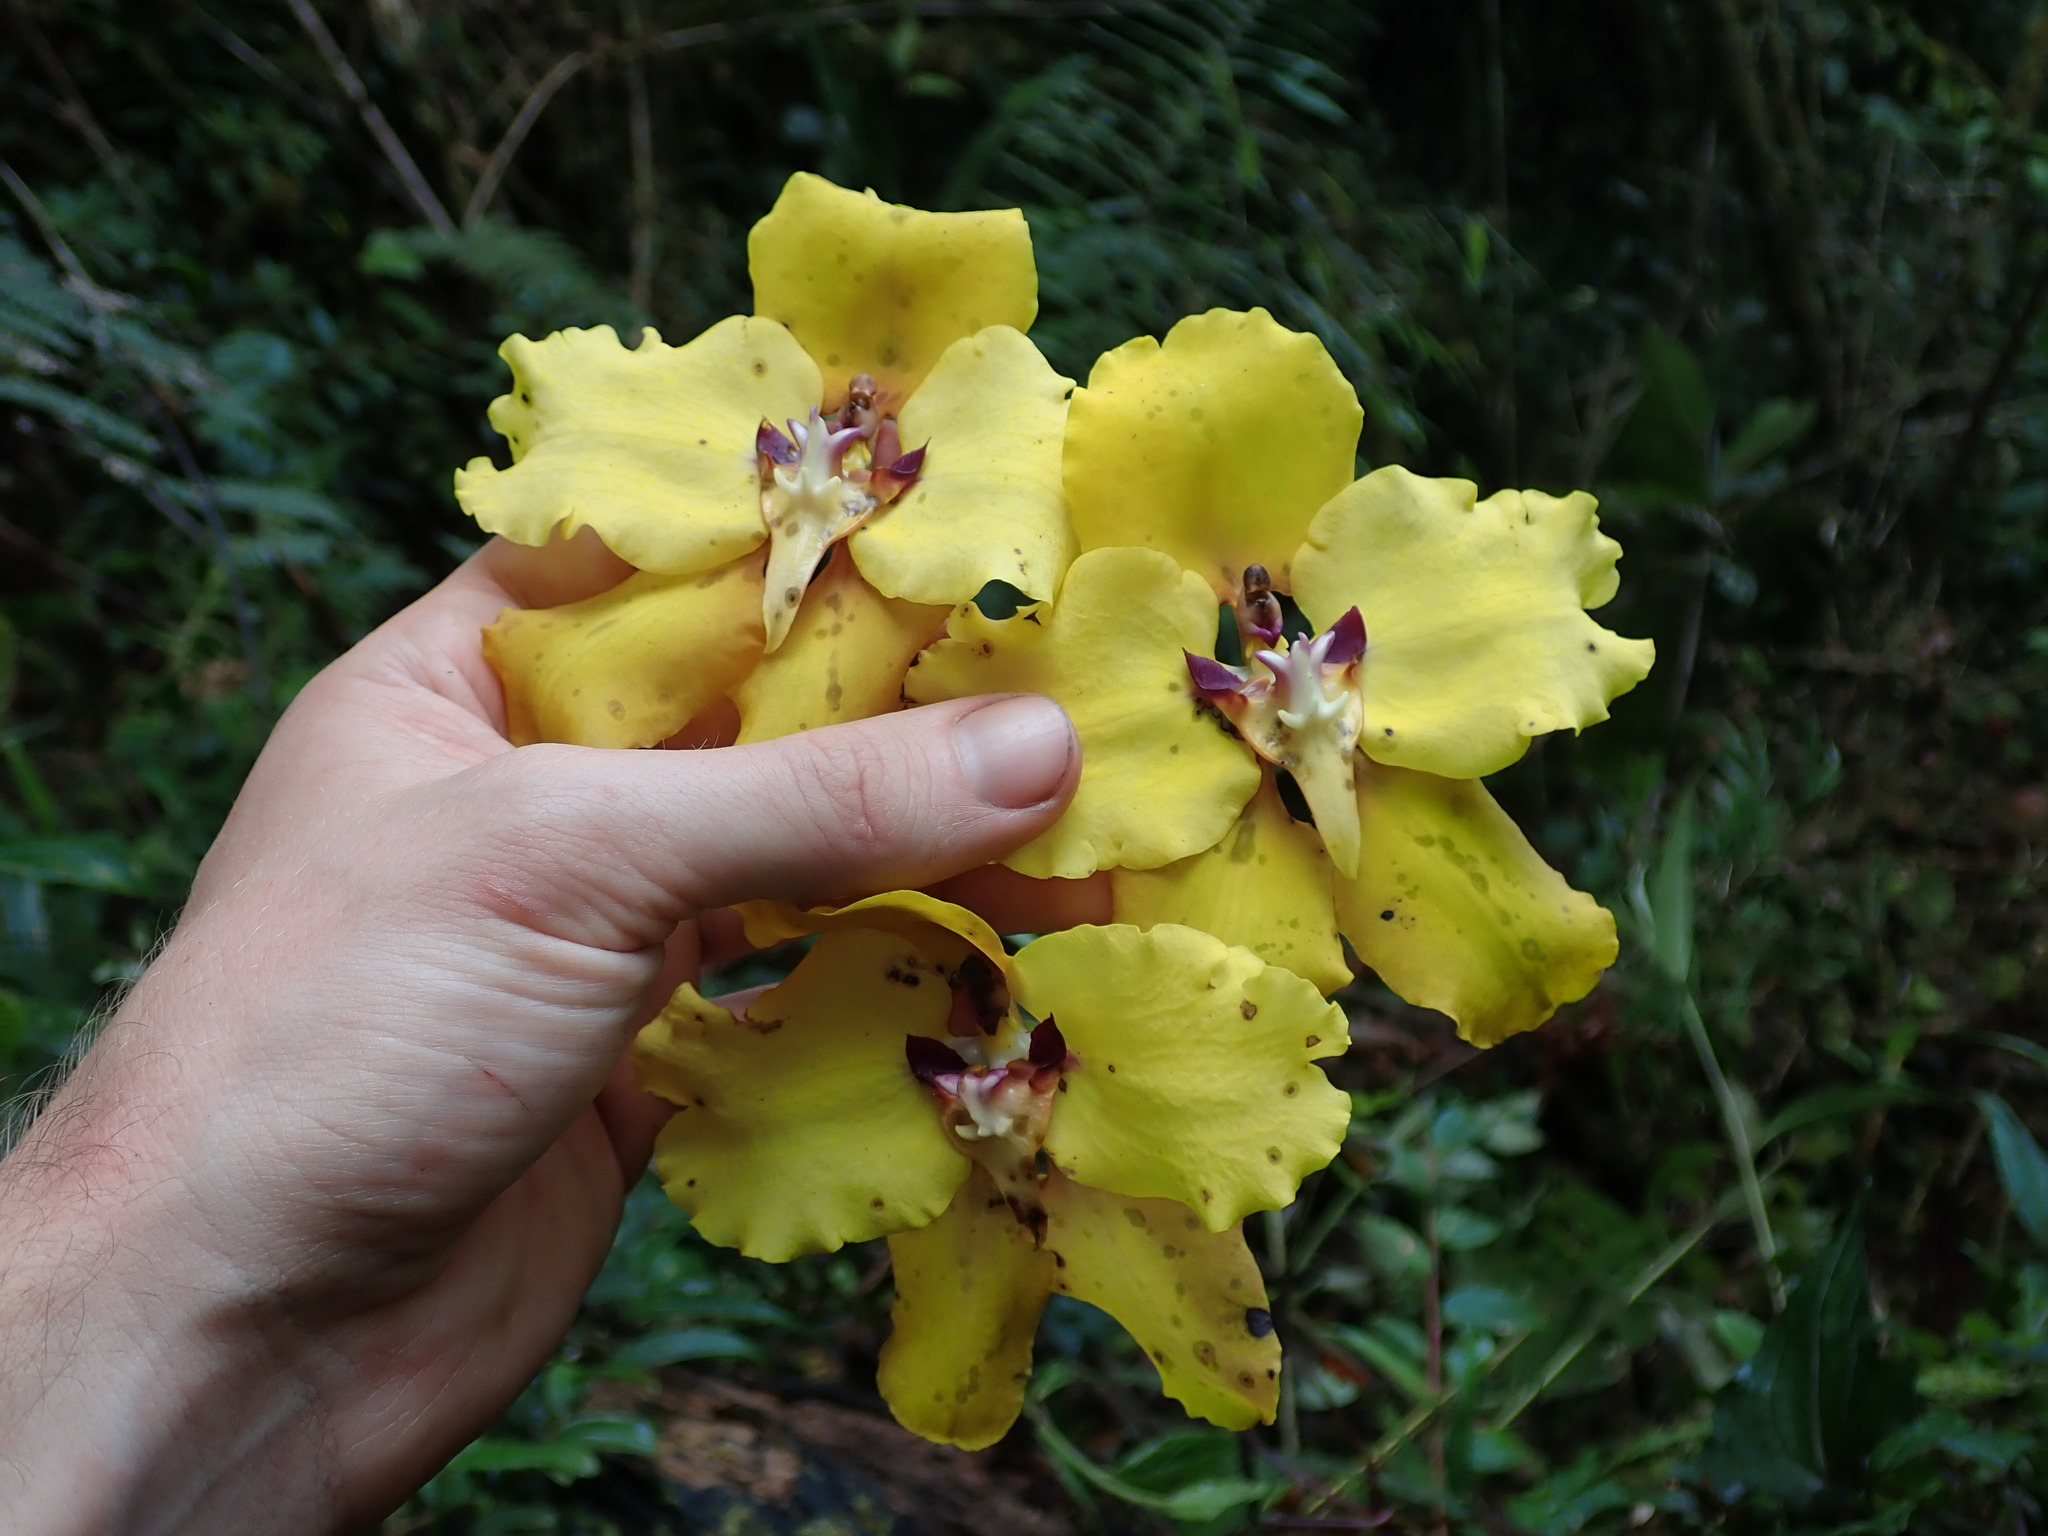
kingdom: Plantae
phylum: Tracheophyta
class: Liliopsida
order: Asparagales
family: Orchidaceae
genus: Cyrtochilum
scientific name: Cyrtochilum macranthum
